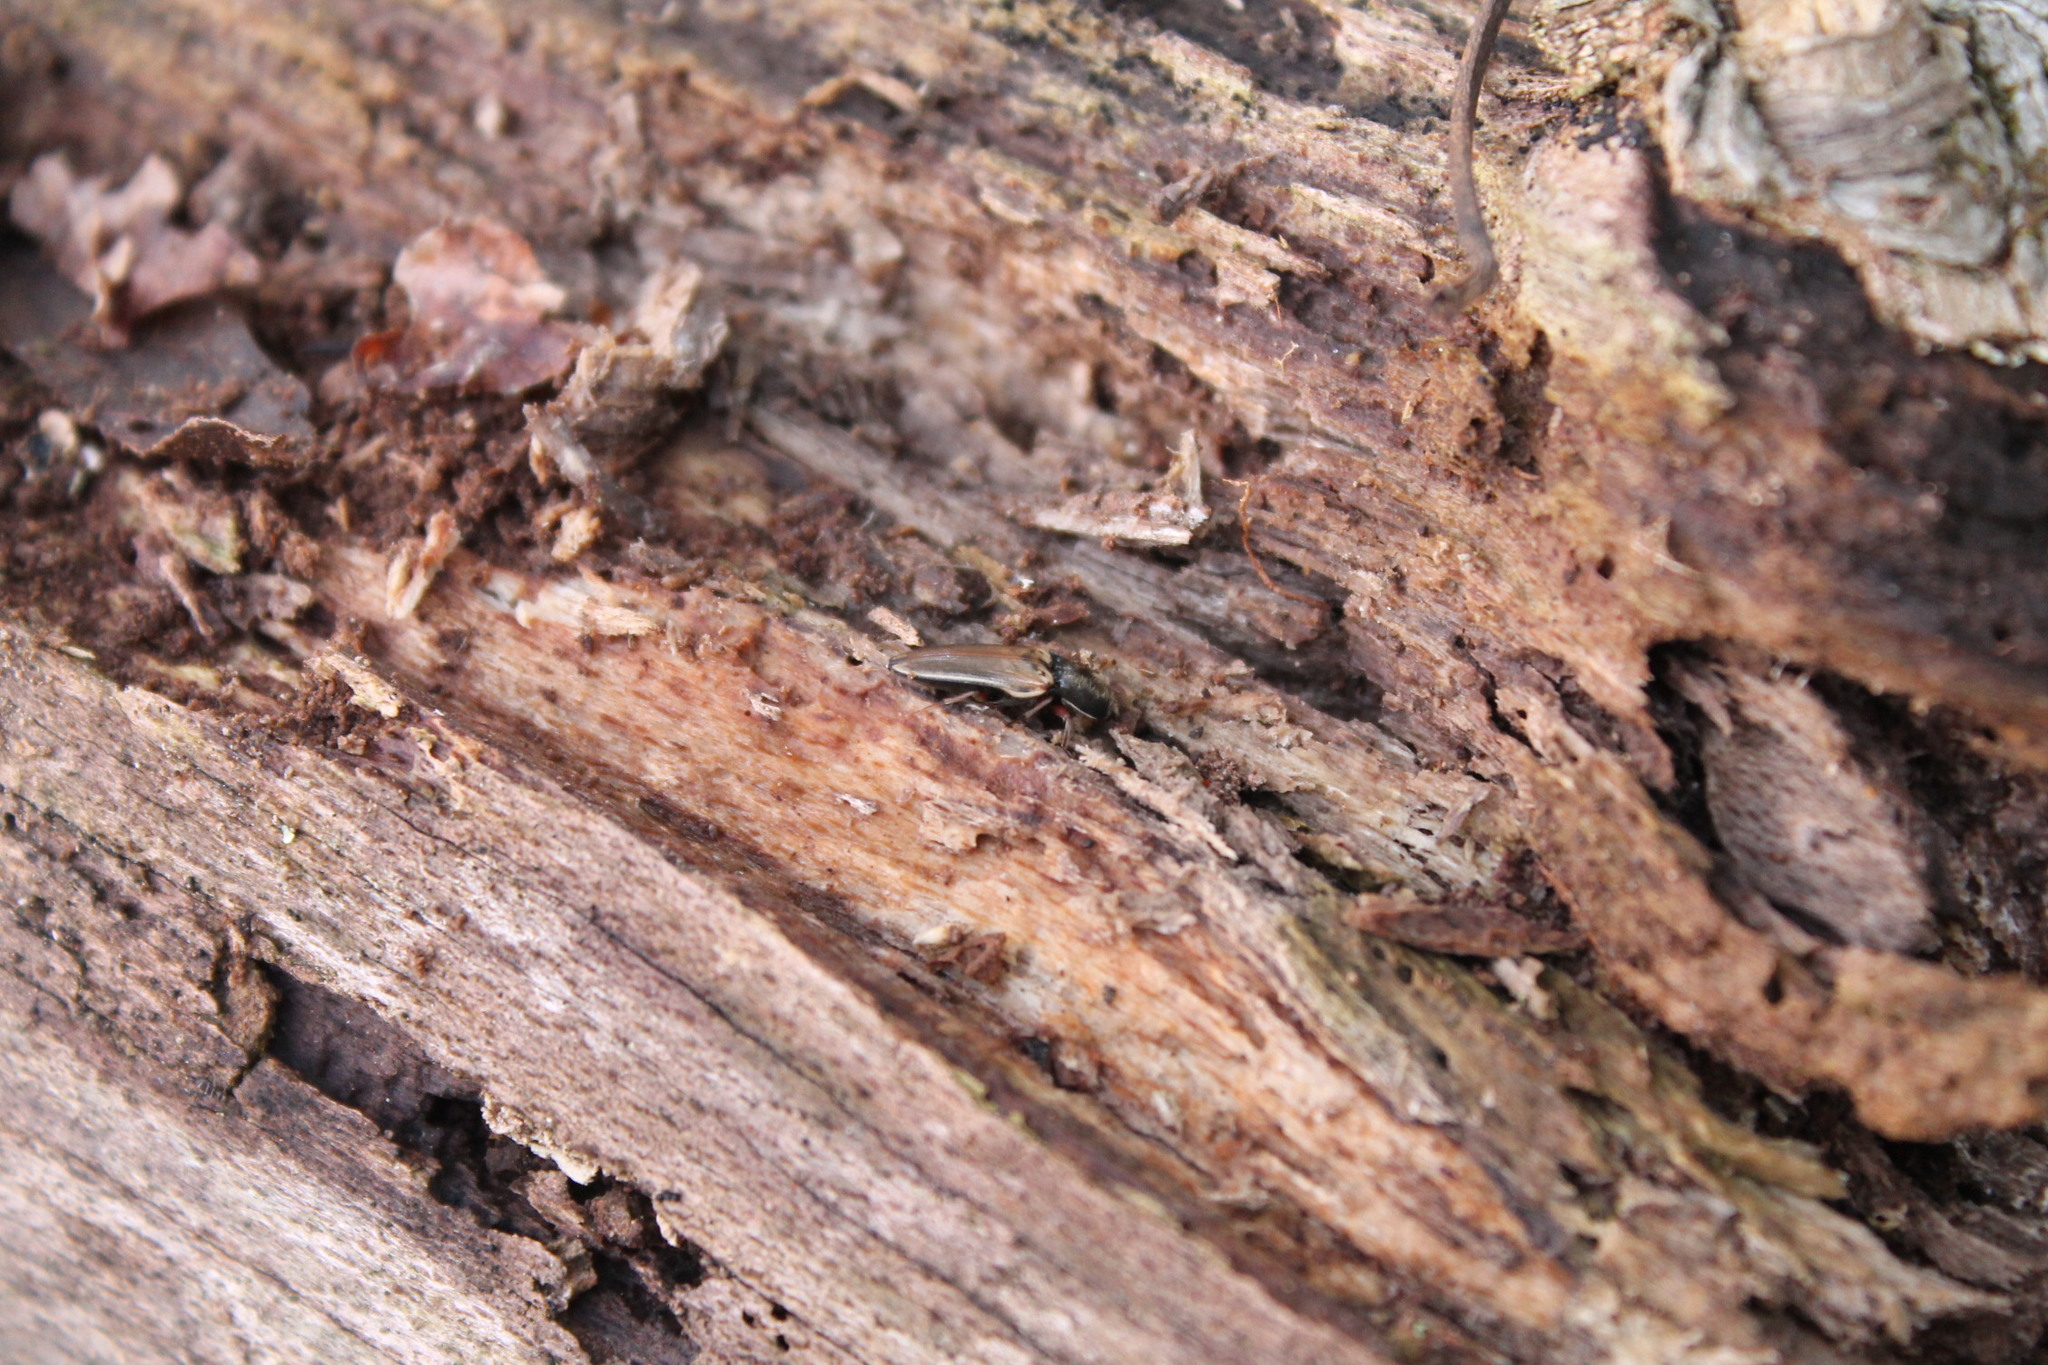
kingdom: Animalia
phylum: Arthropoda
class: Insecta
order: Coleoptera
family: Elateridae
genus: Ampedus
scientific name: Ampedus nigricollis
